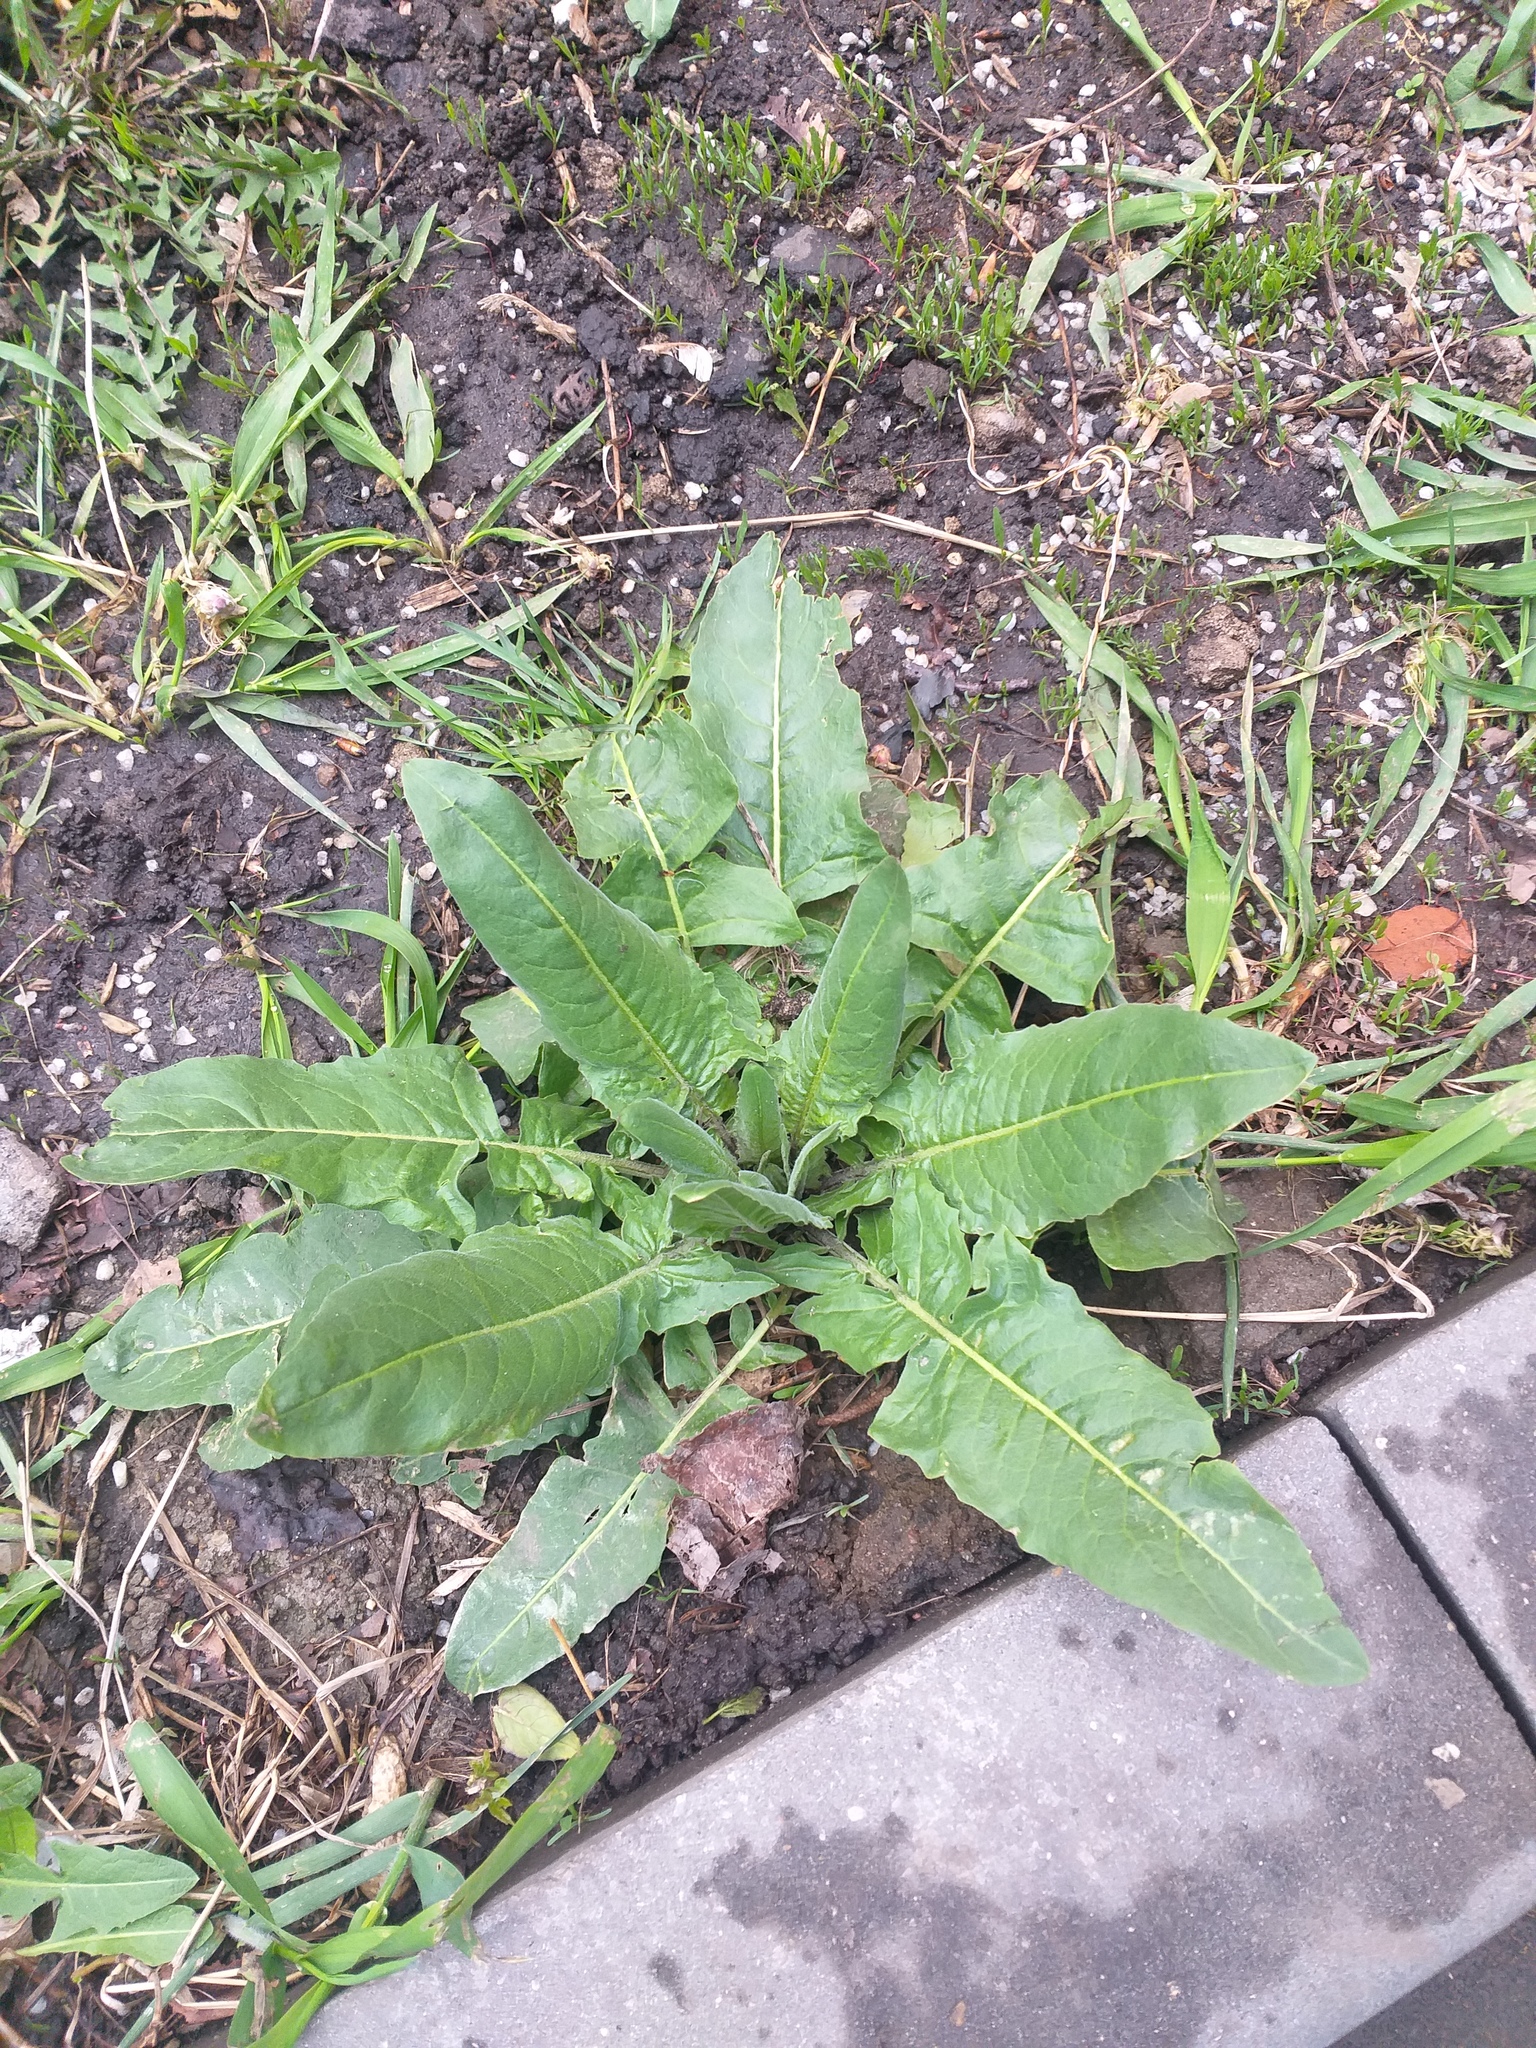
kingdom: Plantae
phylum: Tracheophyta
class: Magnoliopsida
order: Brassicales
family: Brassicaceae
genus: Bunias
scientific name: Bunias orientalis
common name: Warty-cabbage
